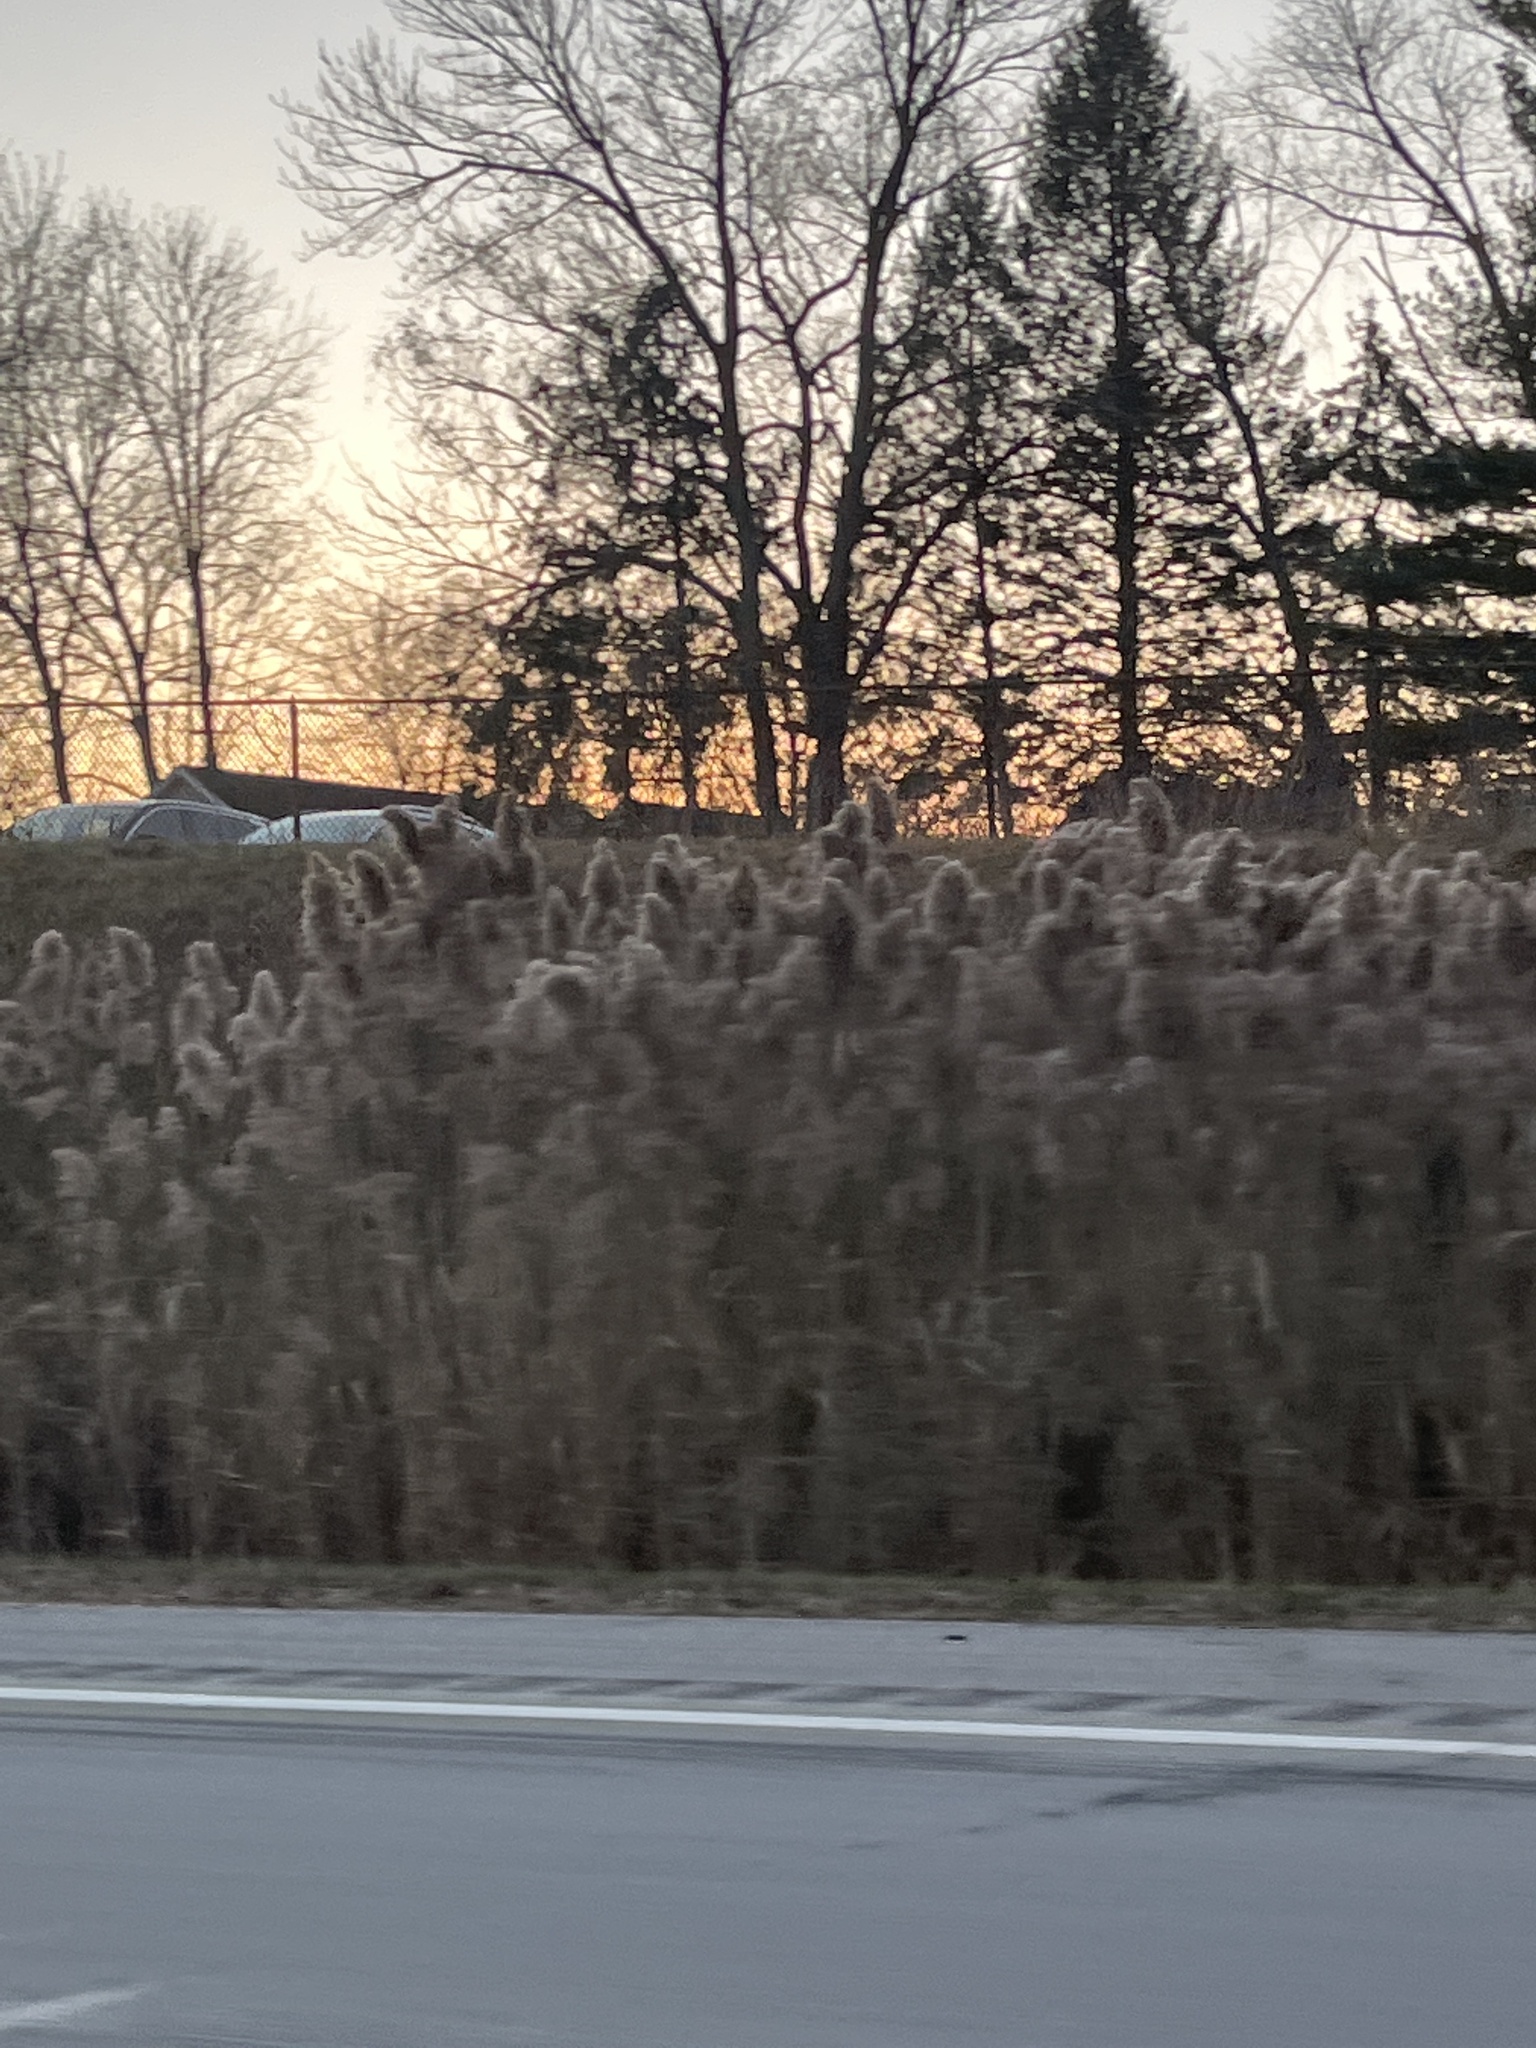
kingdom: Plantae
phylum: Tracheophyta
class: Liliopsida
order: Poales
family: Poaceae
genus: Phragmites
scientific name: Phragmites australis
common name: Common reed
